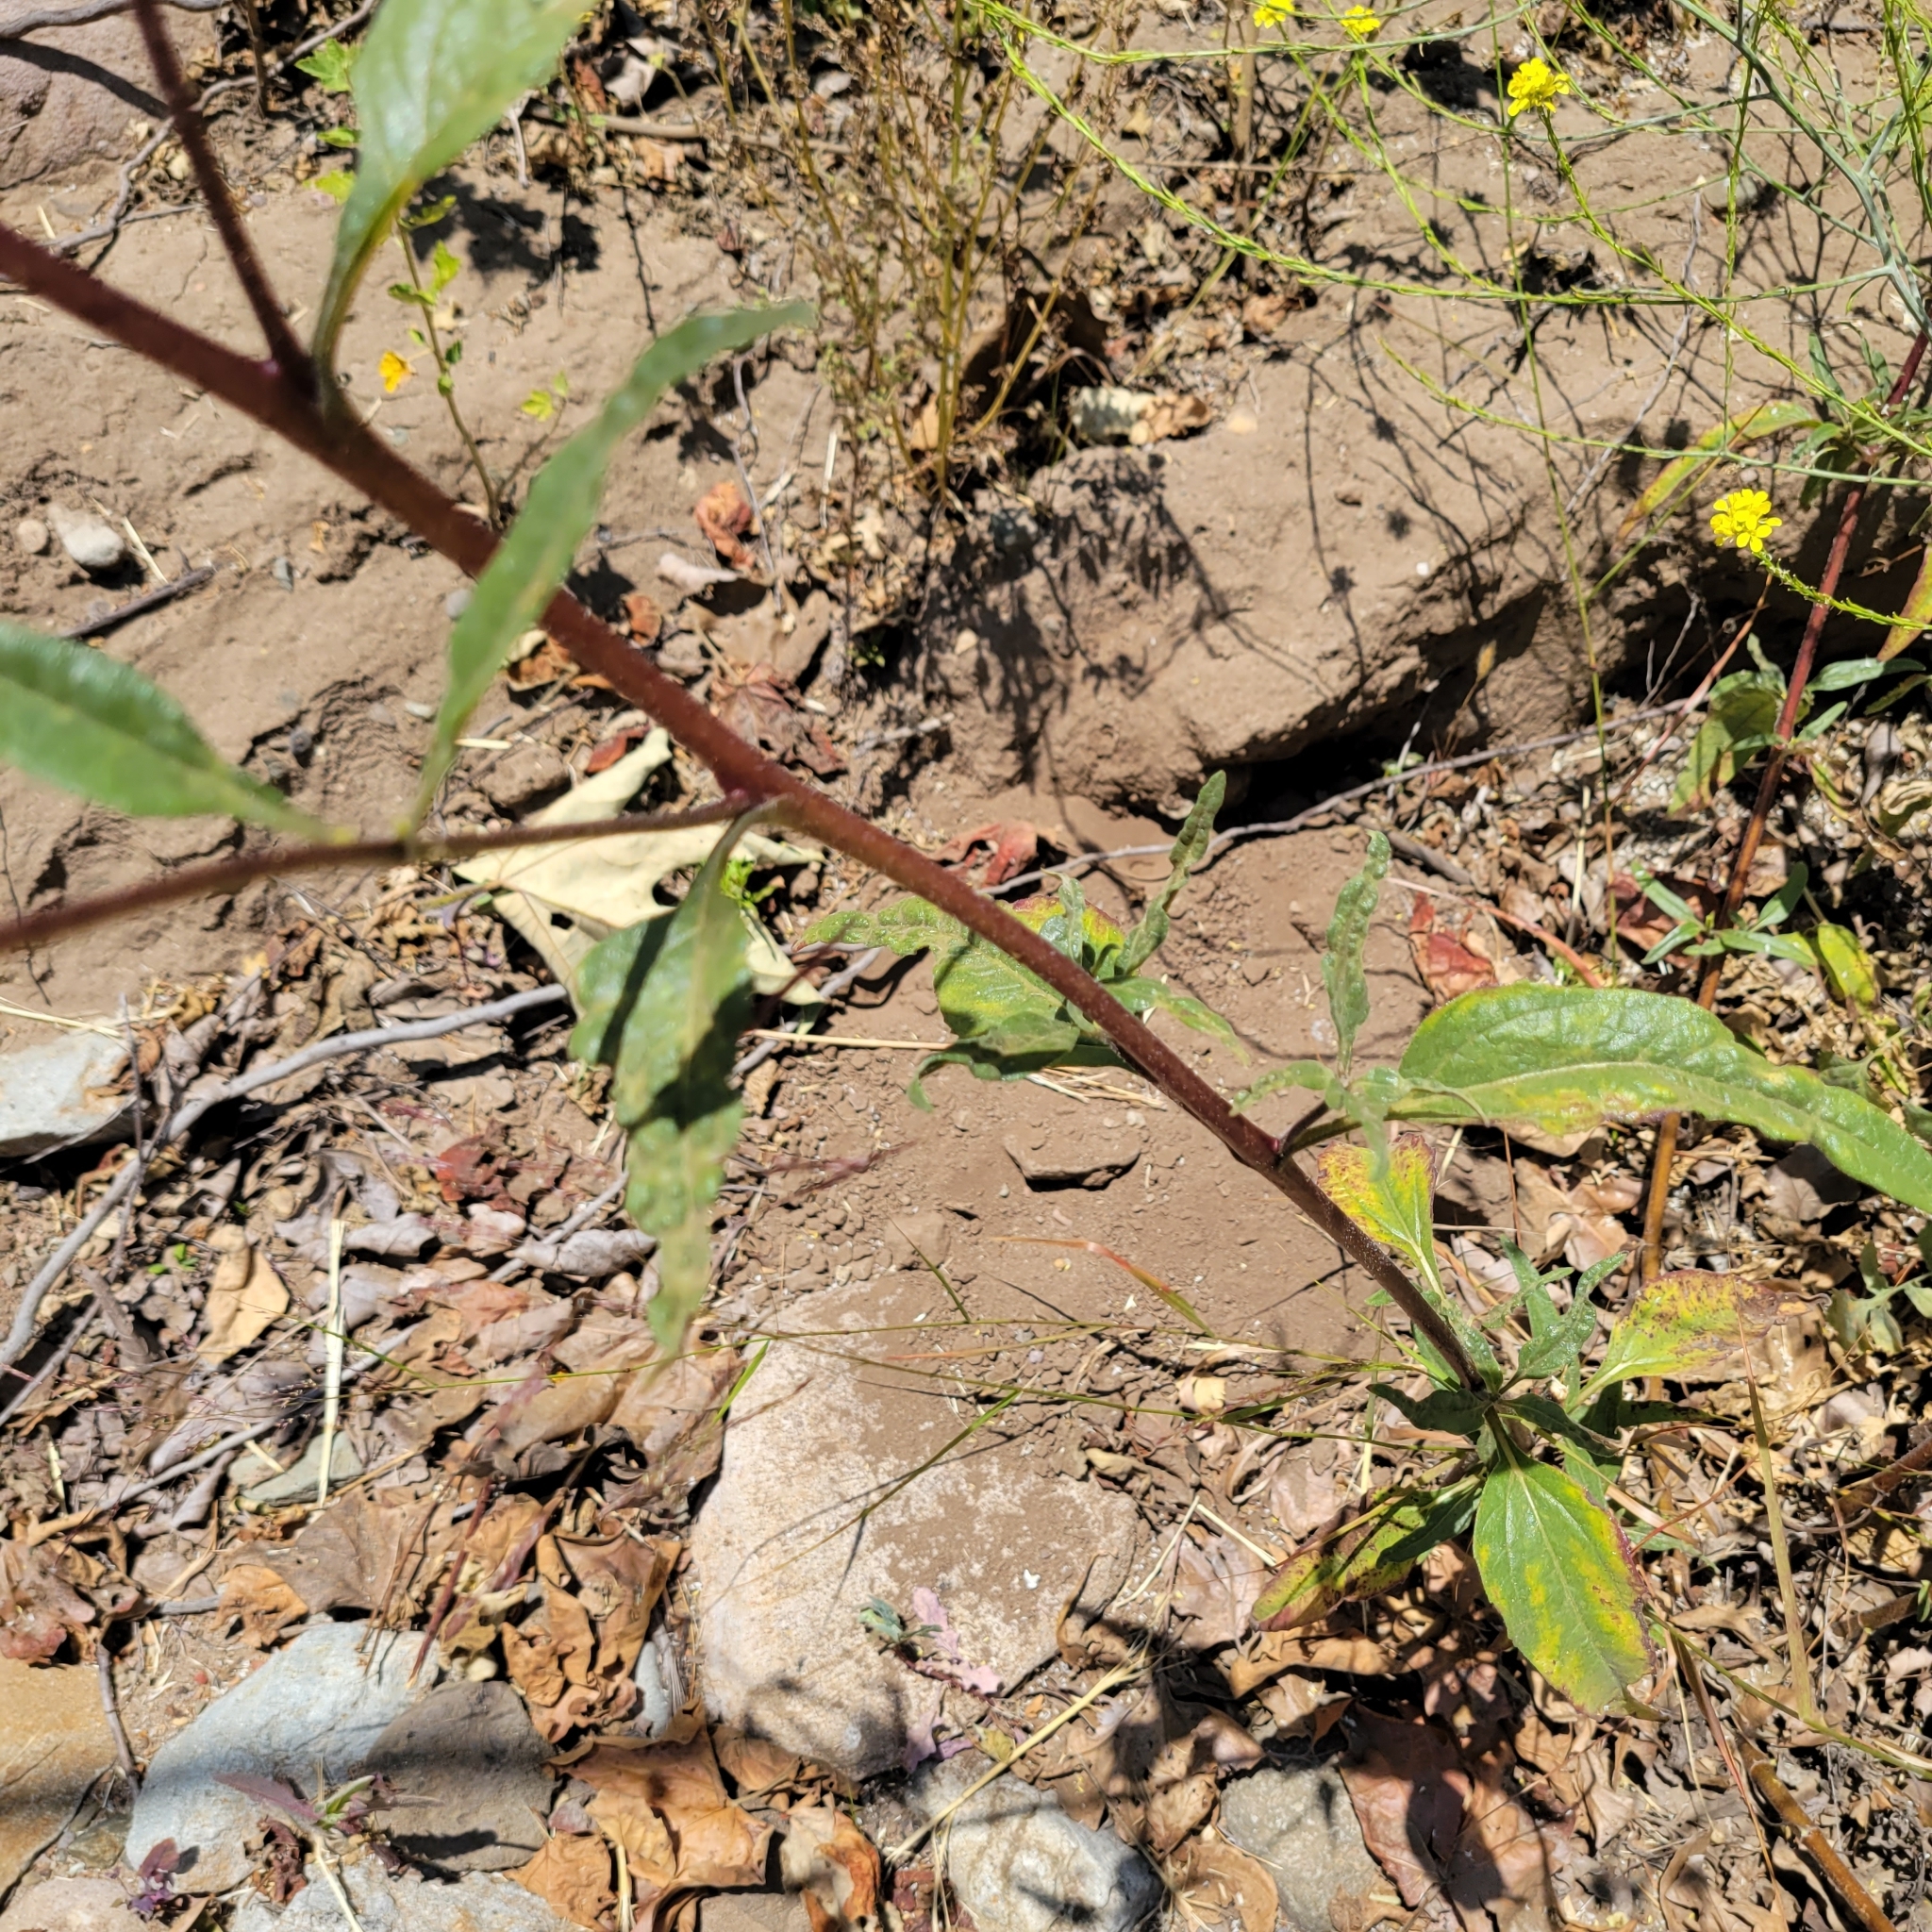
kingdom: Plantae
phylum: Tracheophyta
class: Magnoliopsida
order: Asterales
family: Asteraceae
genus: Helianthus
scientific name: Helianthus gracilentus
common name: Slender sunflower
